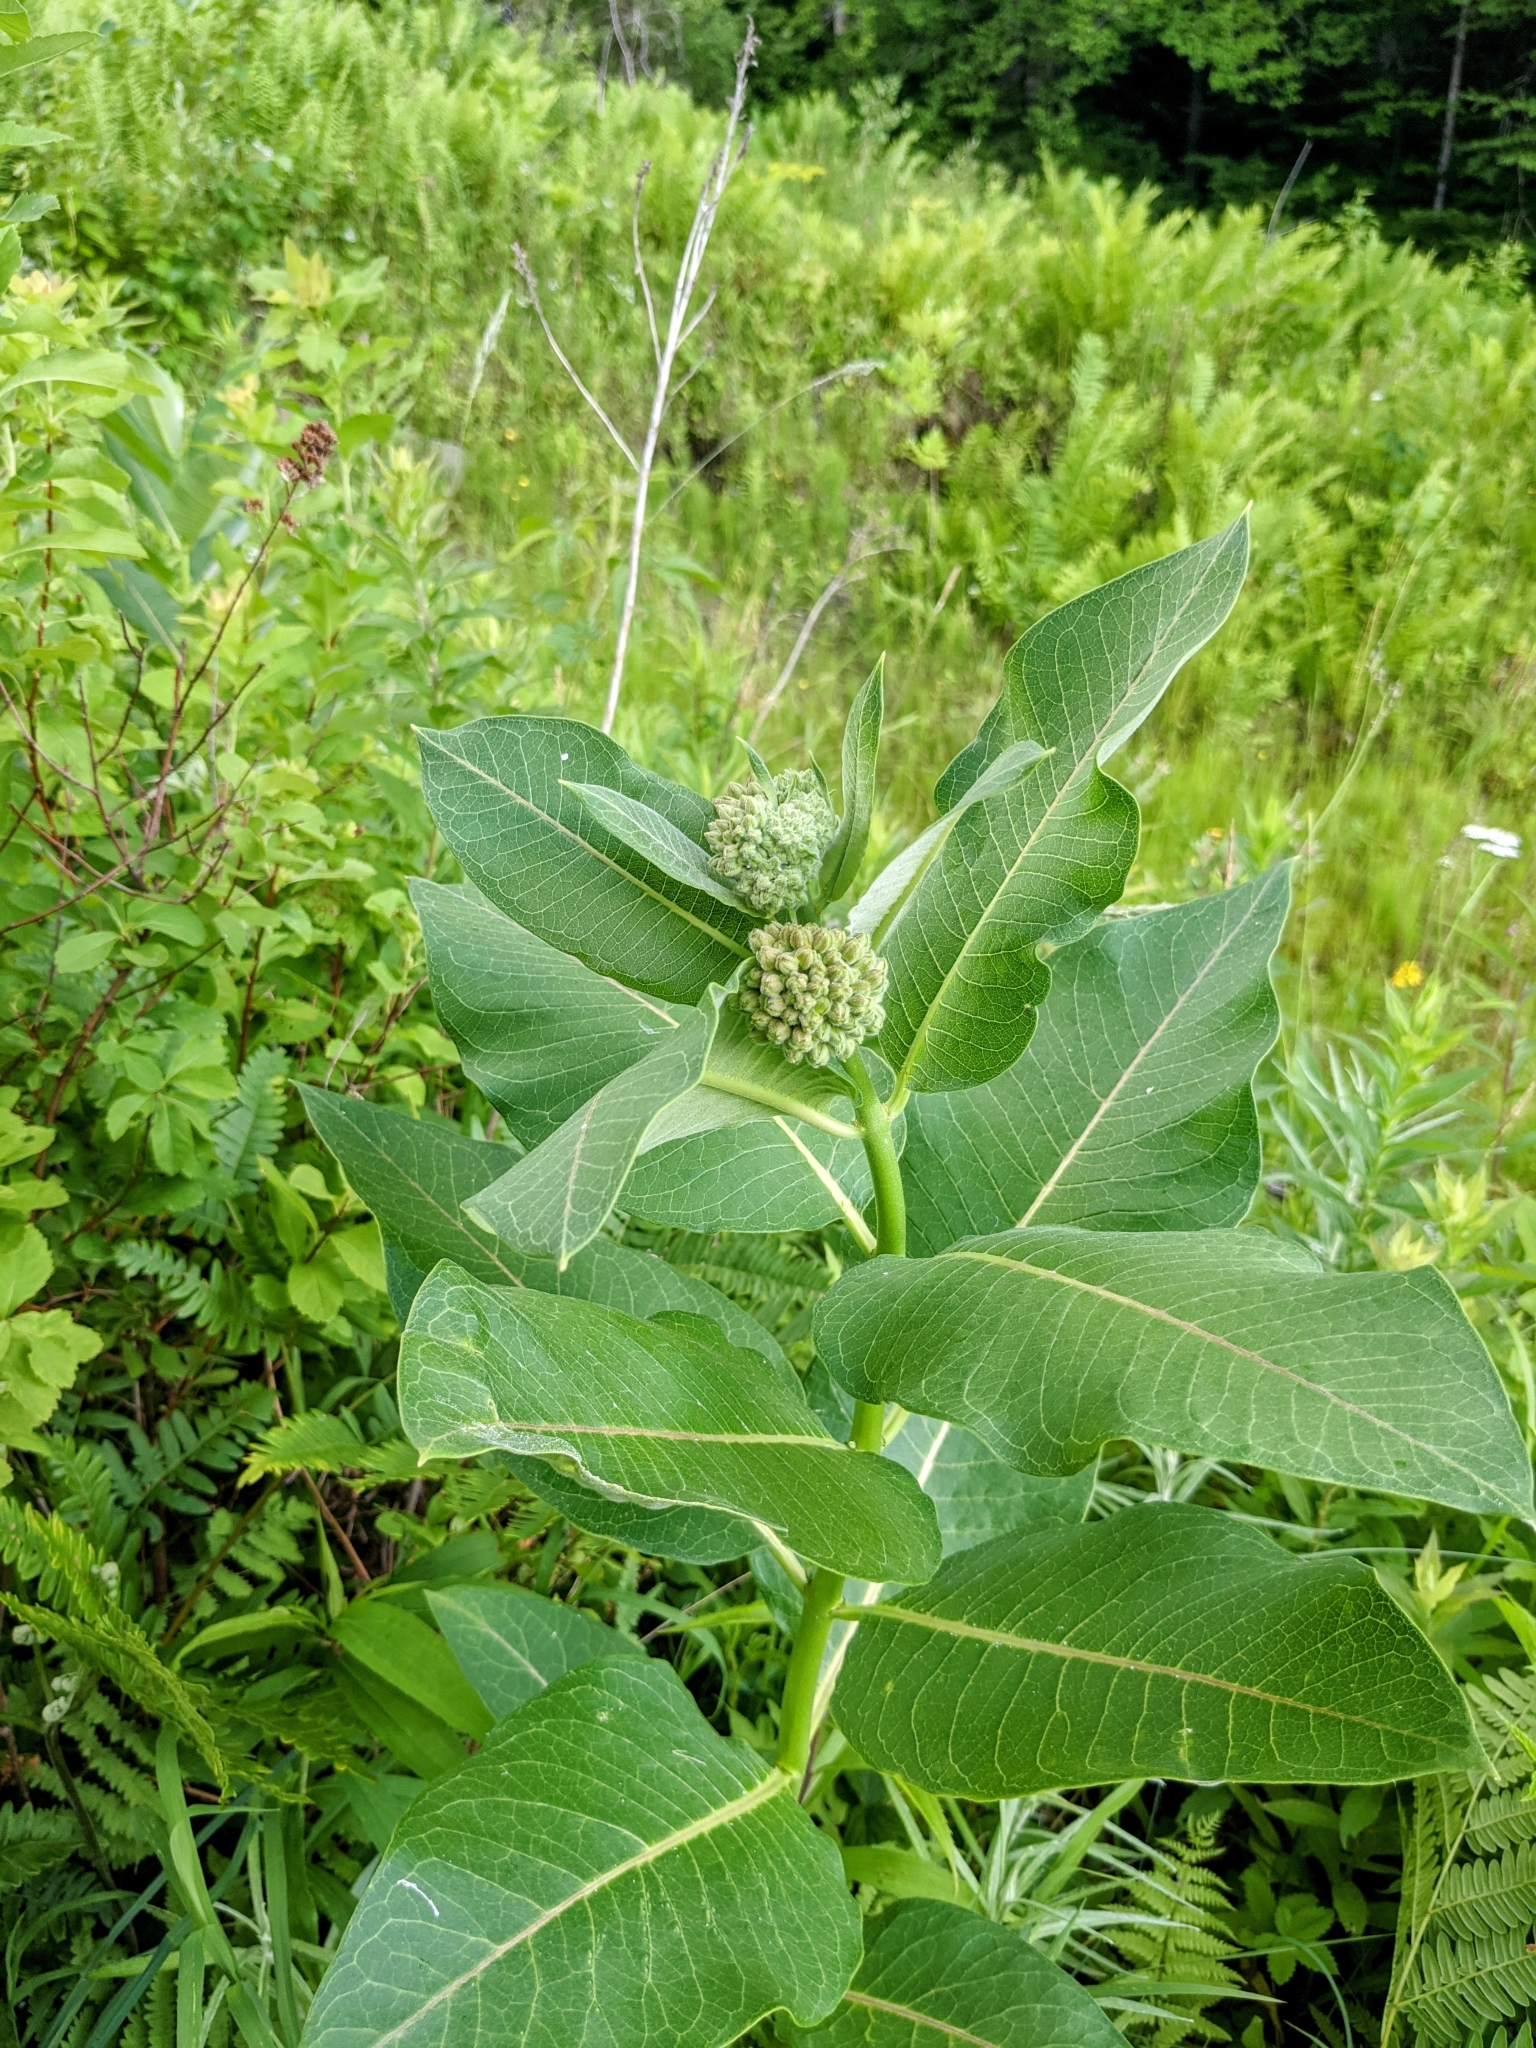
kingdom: Plantae
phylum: Tracheophyta
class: Magnoliopsida
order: Gentianales
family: Apocynaceae
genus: Asclepias
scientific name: Asclepias syriaca
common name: Common milkweed
